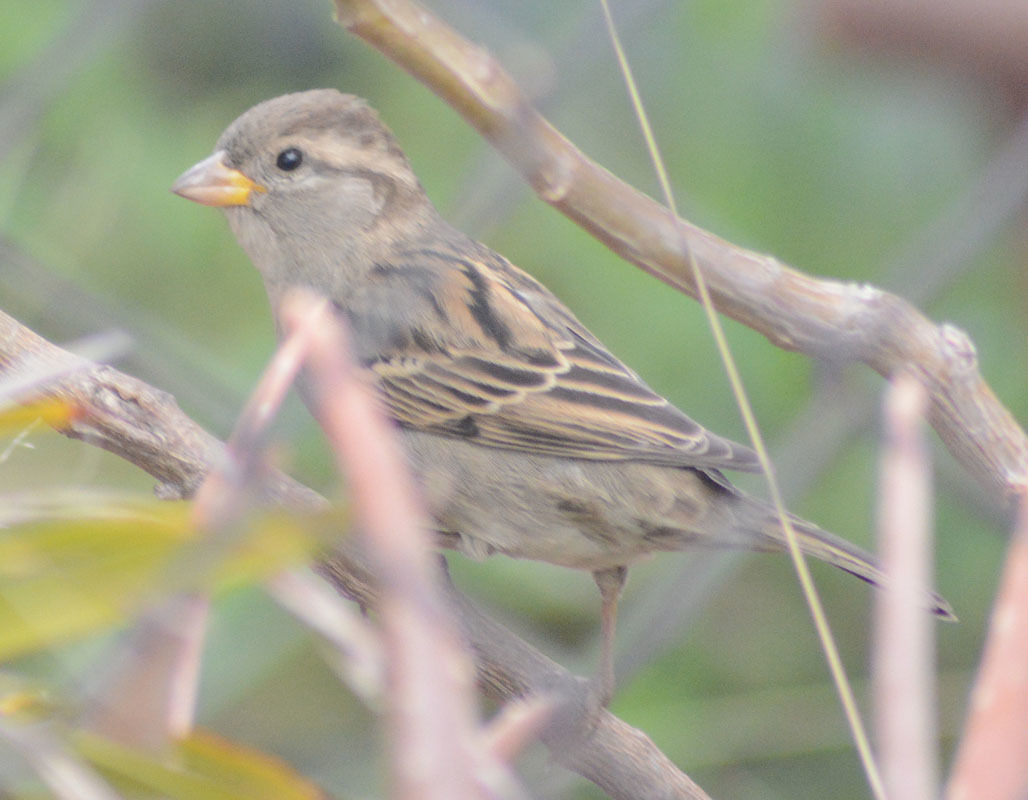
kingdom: Animalia
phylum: Chordata
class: Aves
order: Passeriformes
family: Passeridae
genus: Passer
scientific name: Passer domesticus
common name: House sparrow
